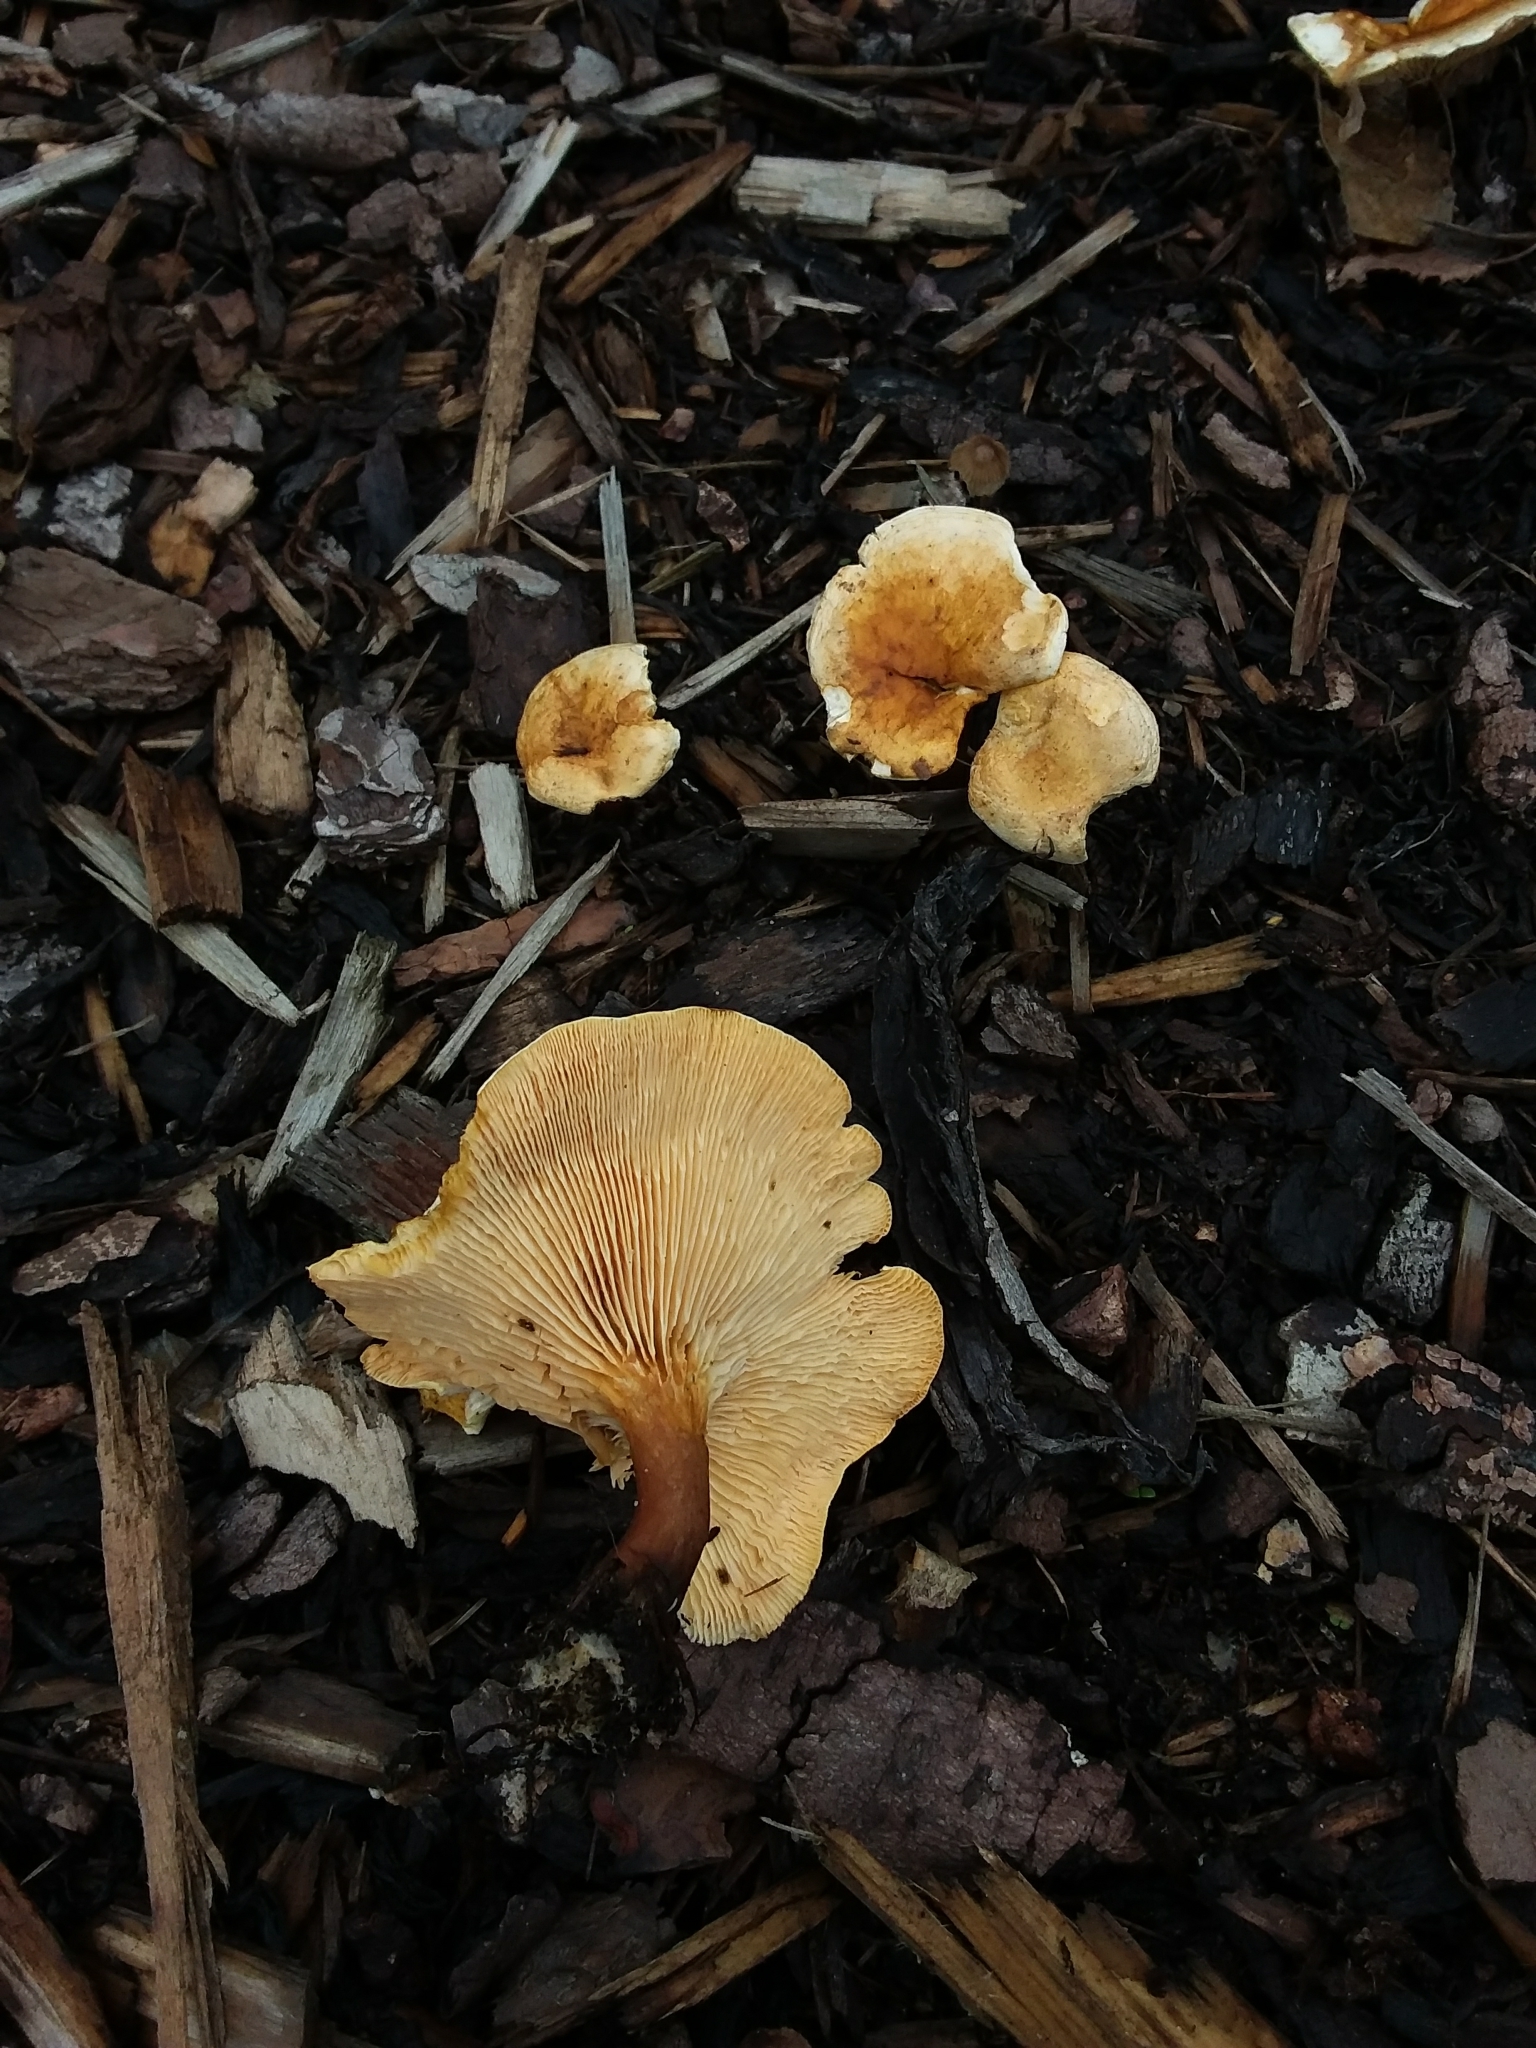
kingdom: Fungi
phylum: Basidiomycota
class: Agaricomycetes
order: Boletales
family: Hygrophoropsidaceae
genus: Hygrophoropsis
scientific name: Hygrophoropsis aurantiaca
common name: False chanterelle
